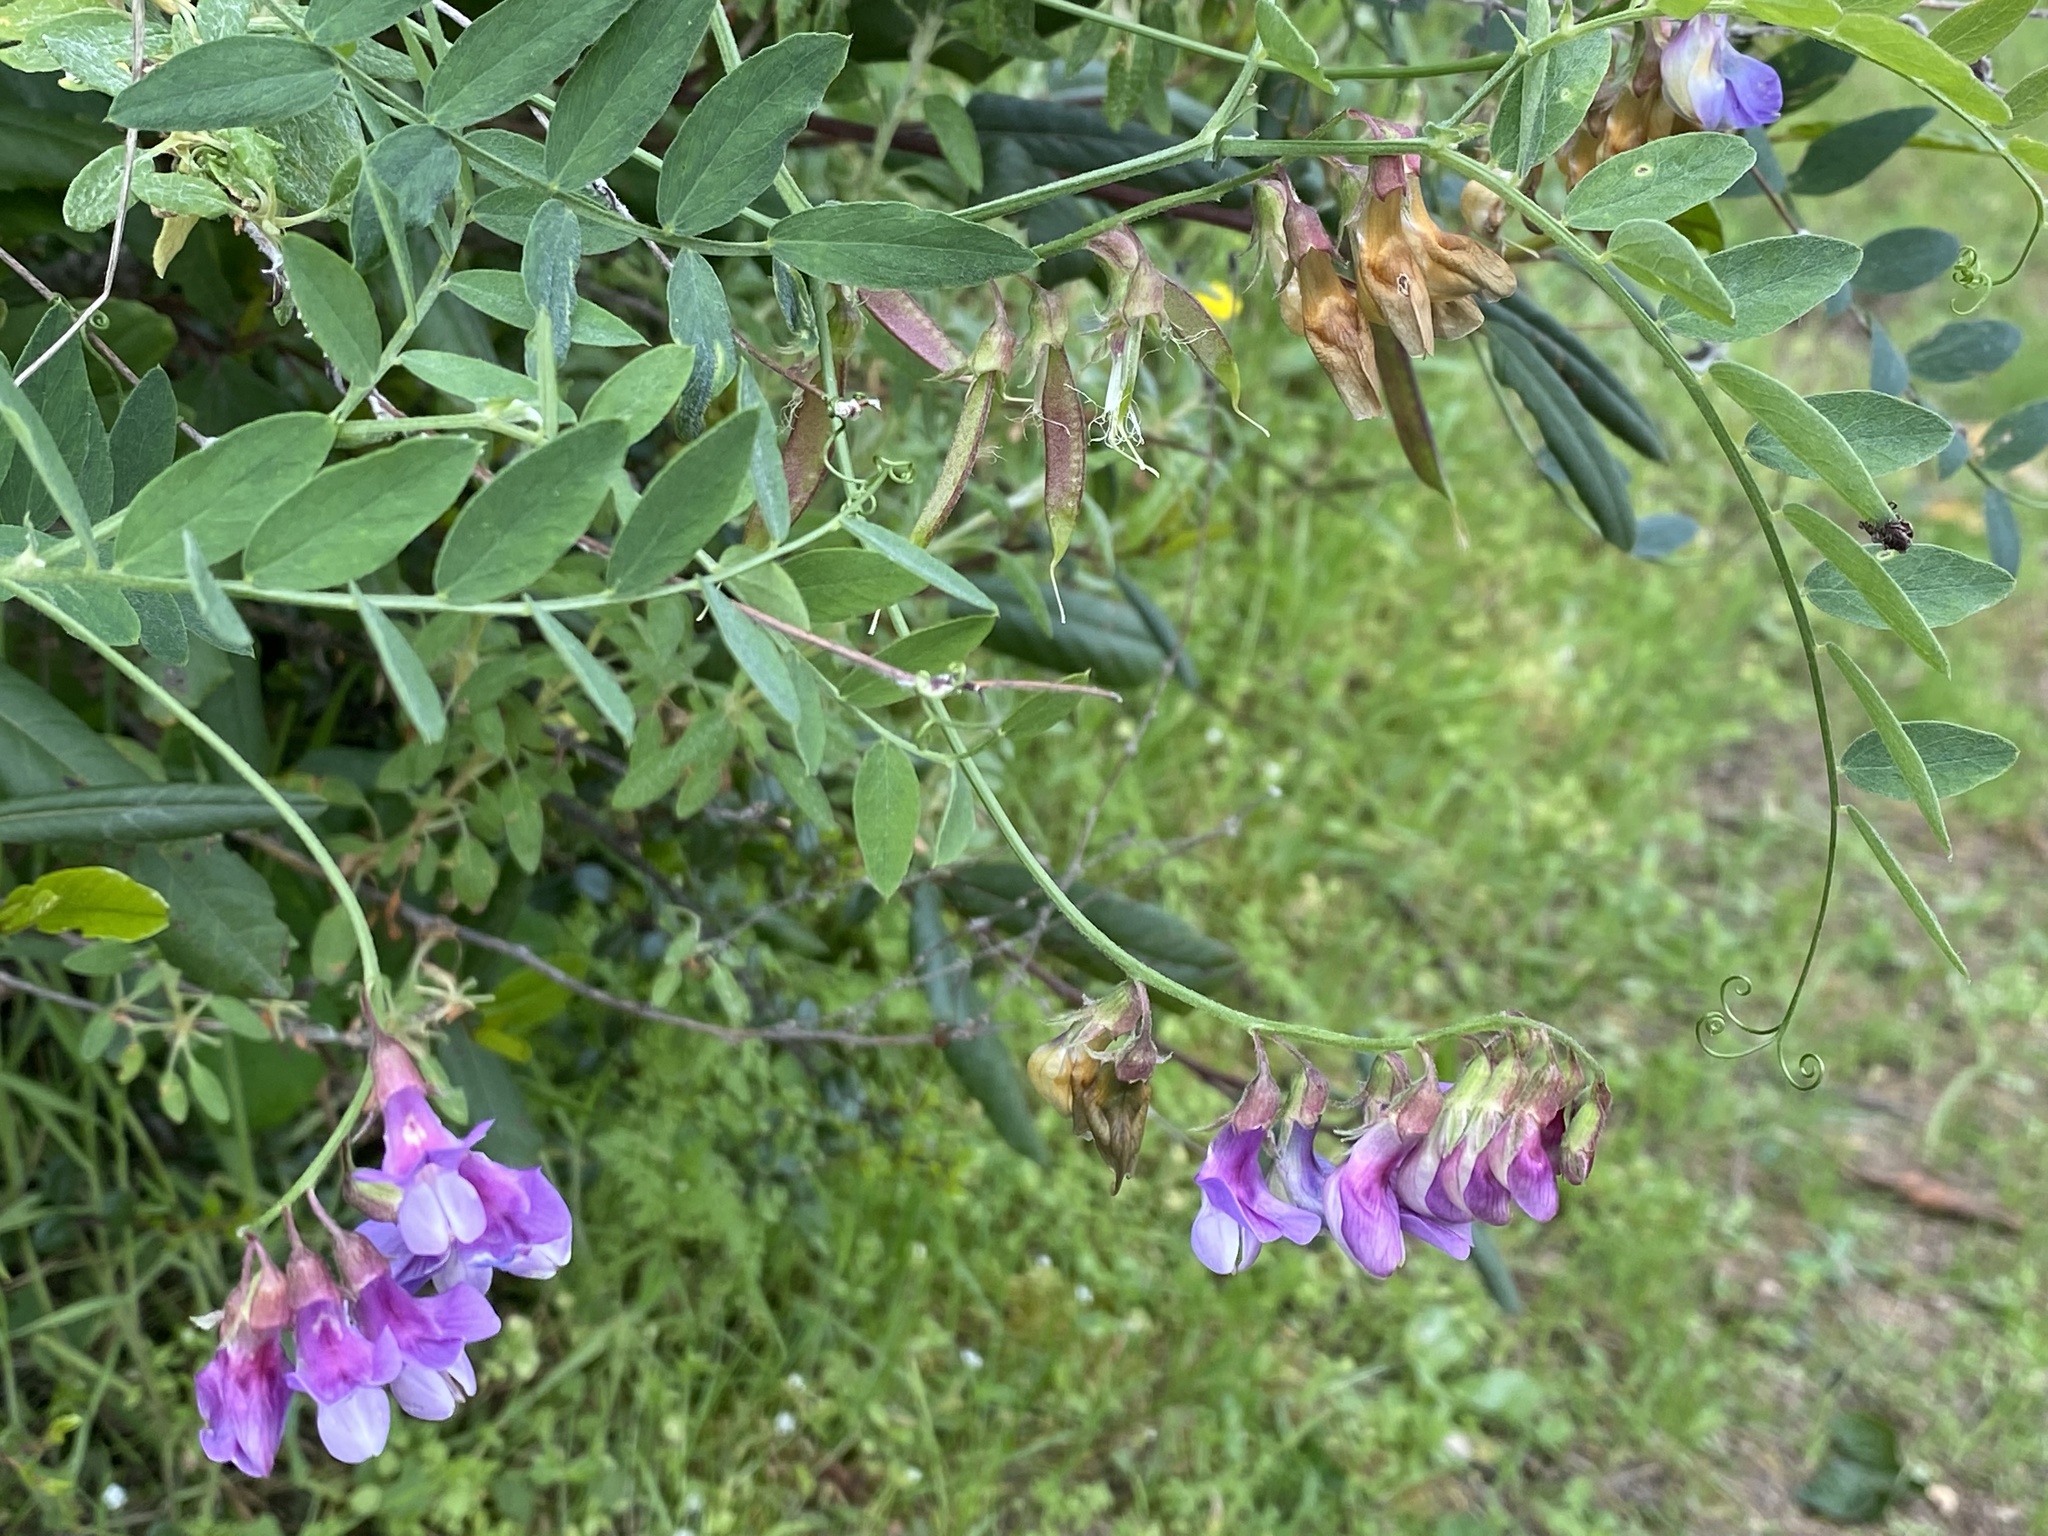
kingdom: Plantae
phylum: Tracheophyta
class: Magnoliopsida
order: Fabales
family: Fabaceae
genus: Lathyrus
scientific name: Lathyrus vestitus
